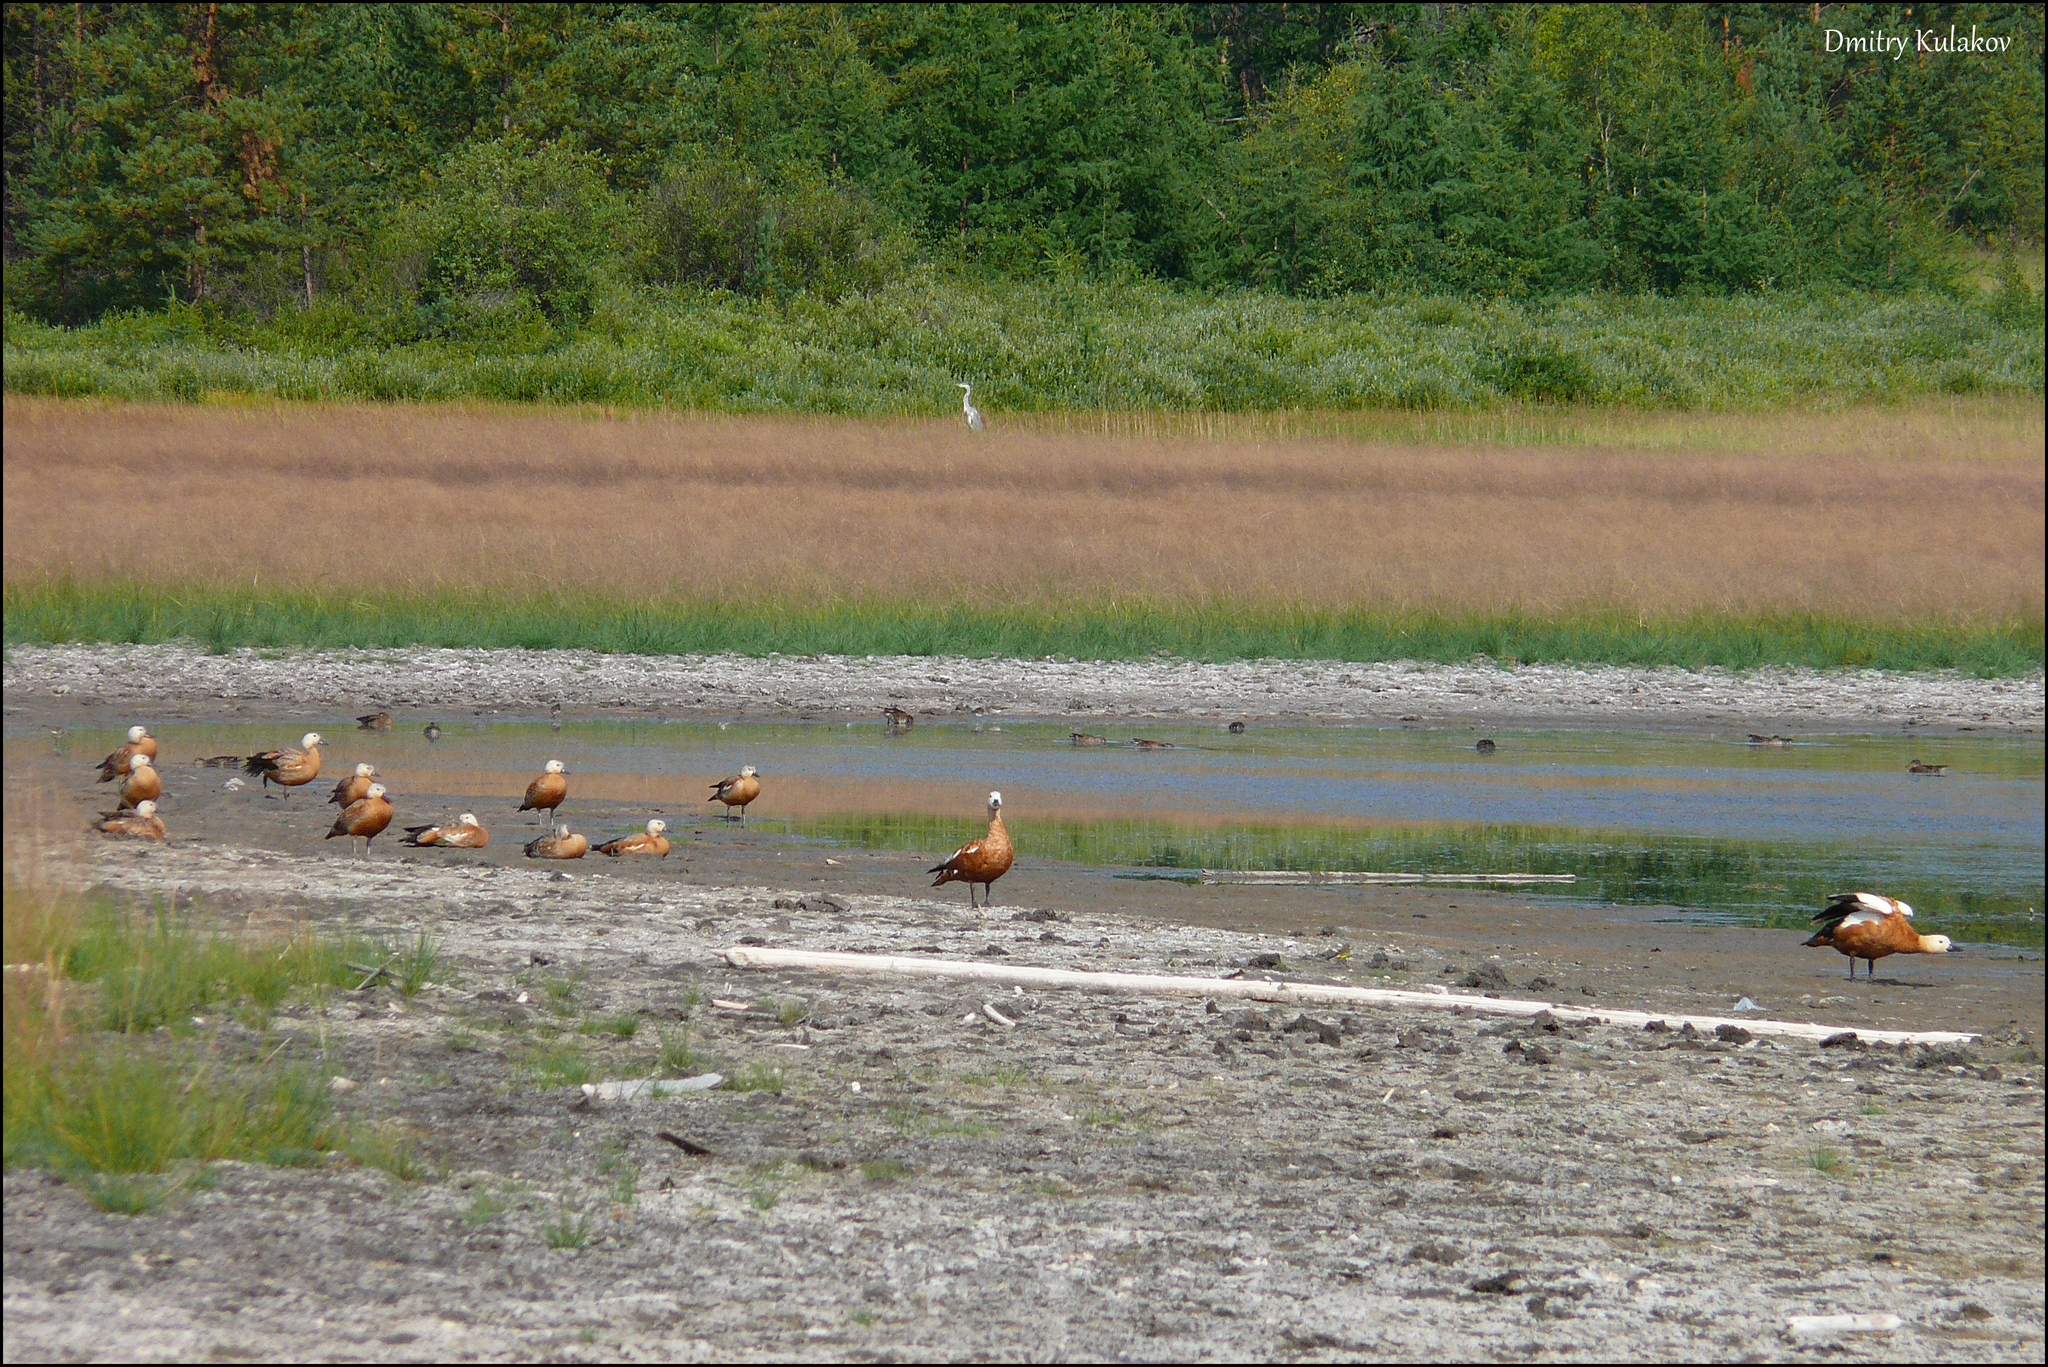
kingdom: Animalia
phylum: Chordata
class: Aves
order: Anseriformes
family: Anatidae
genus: Tadorna
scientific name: Tadorna ferruginea
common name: Ruddy shelduck
